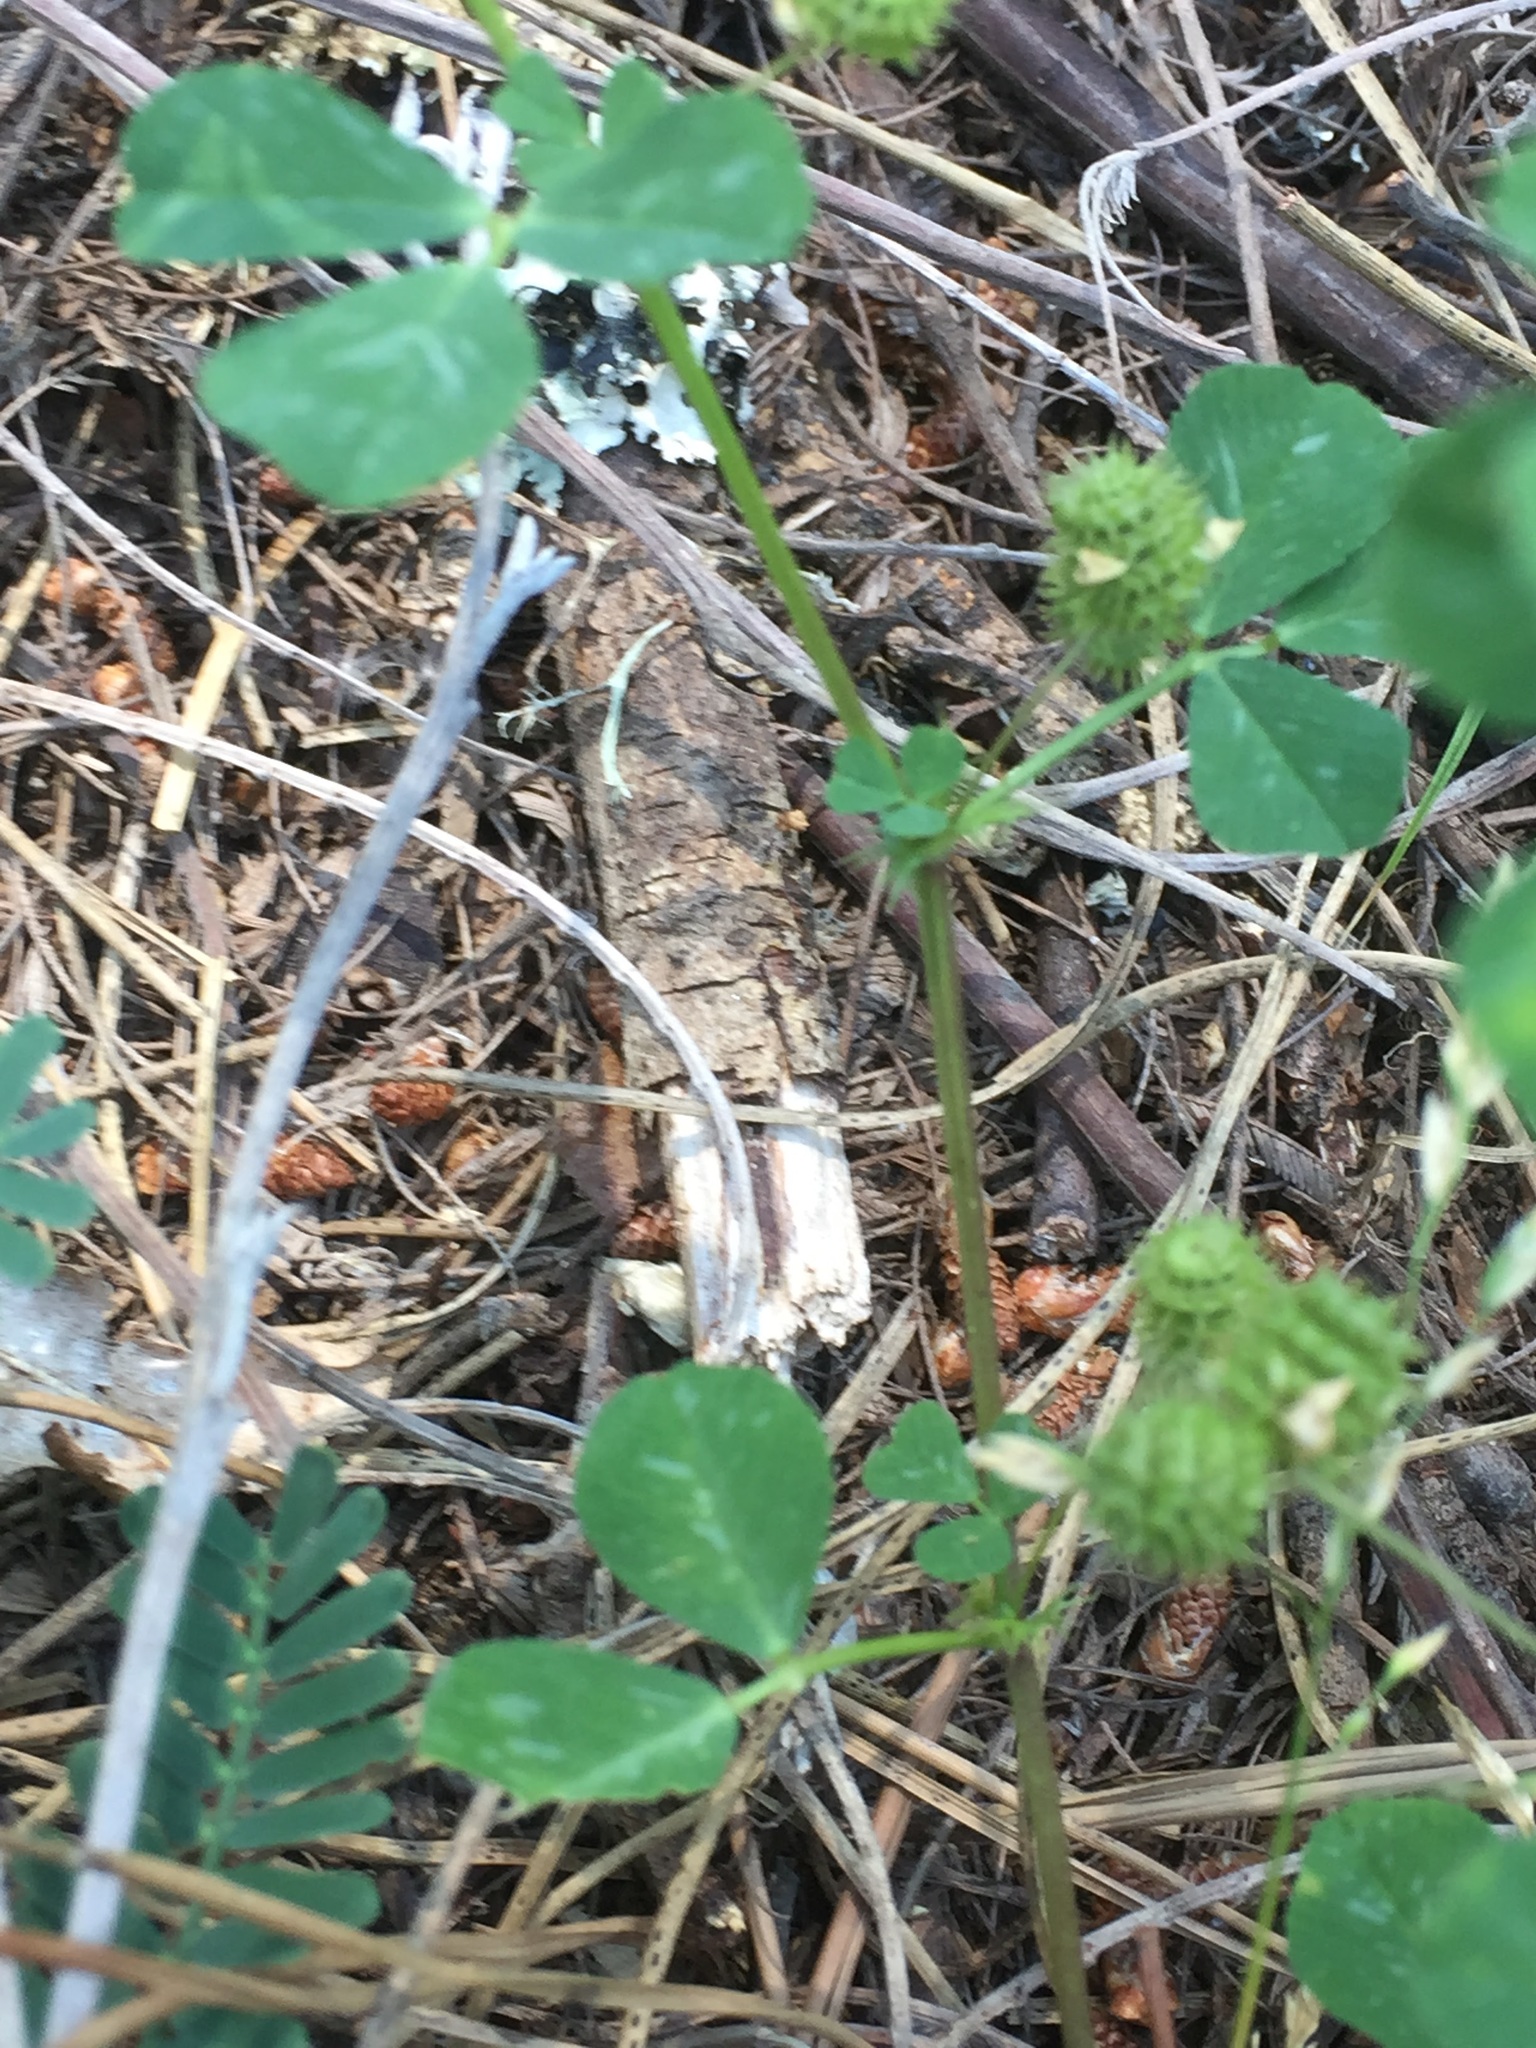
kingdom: Plantae
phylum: Tracheophyta
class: Magnoliopsida
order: Fabales
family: Fabaceae
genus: Medicago
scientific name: Medicago polymorpha
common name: Burclover
